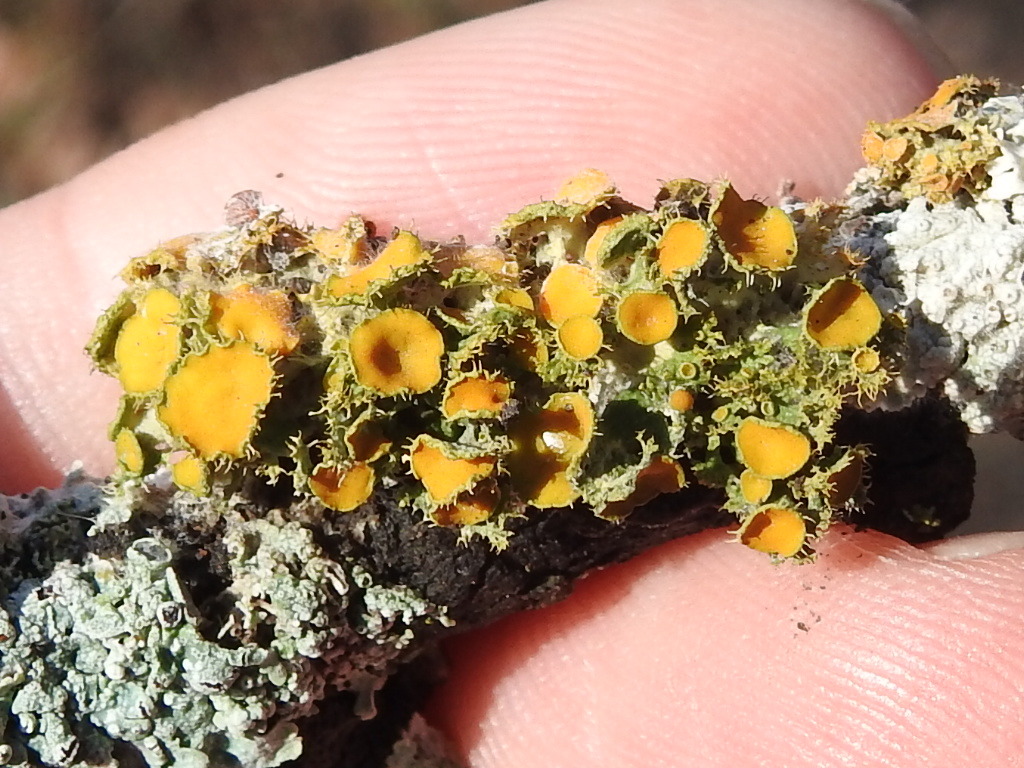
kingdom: Fungi
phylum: Ascomycota
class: Lecanoromycetes
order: Teloschistales
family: Teloschistaceae
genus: Niorma
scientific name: Niorma chrysophthalma
